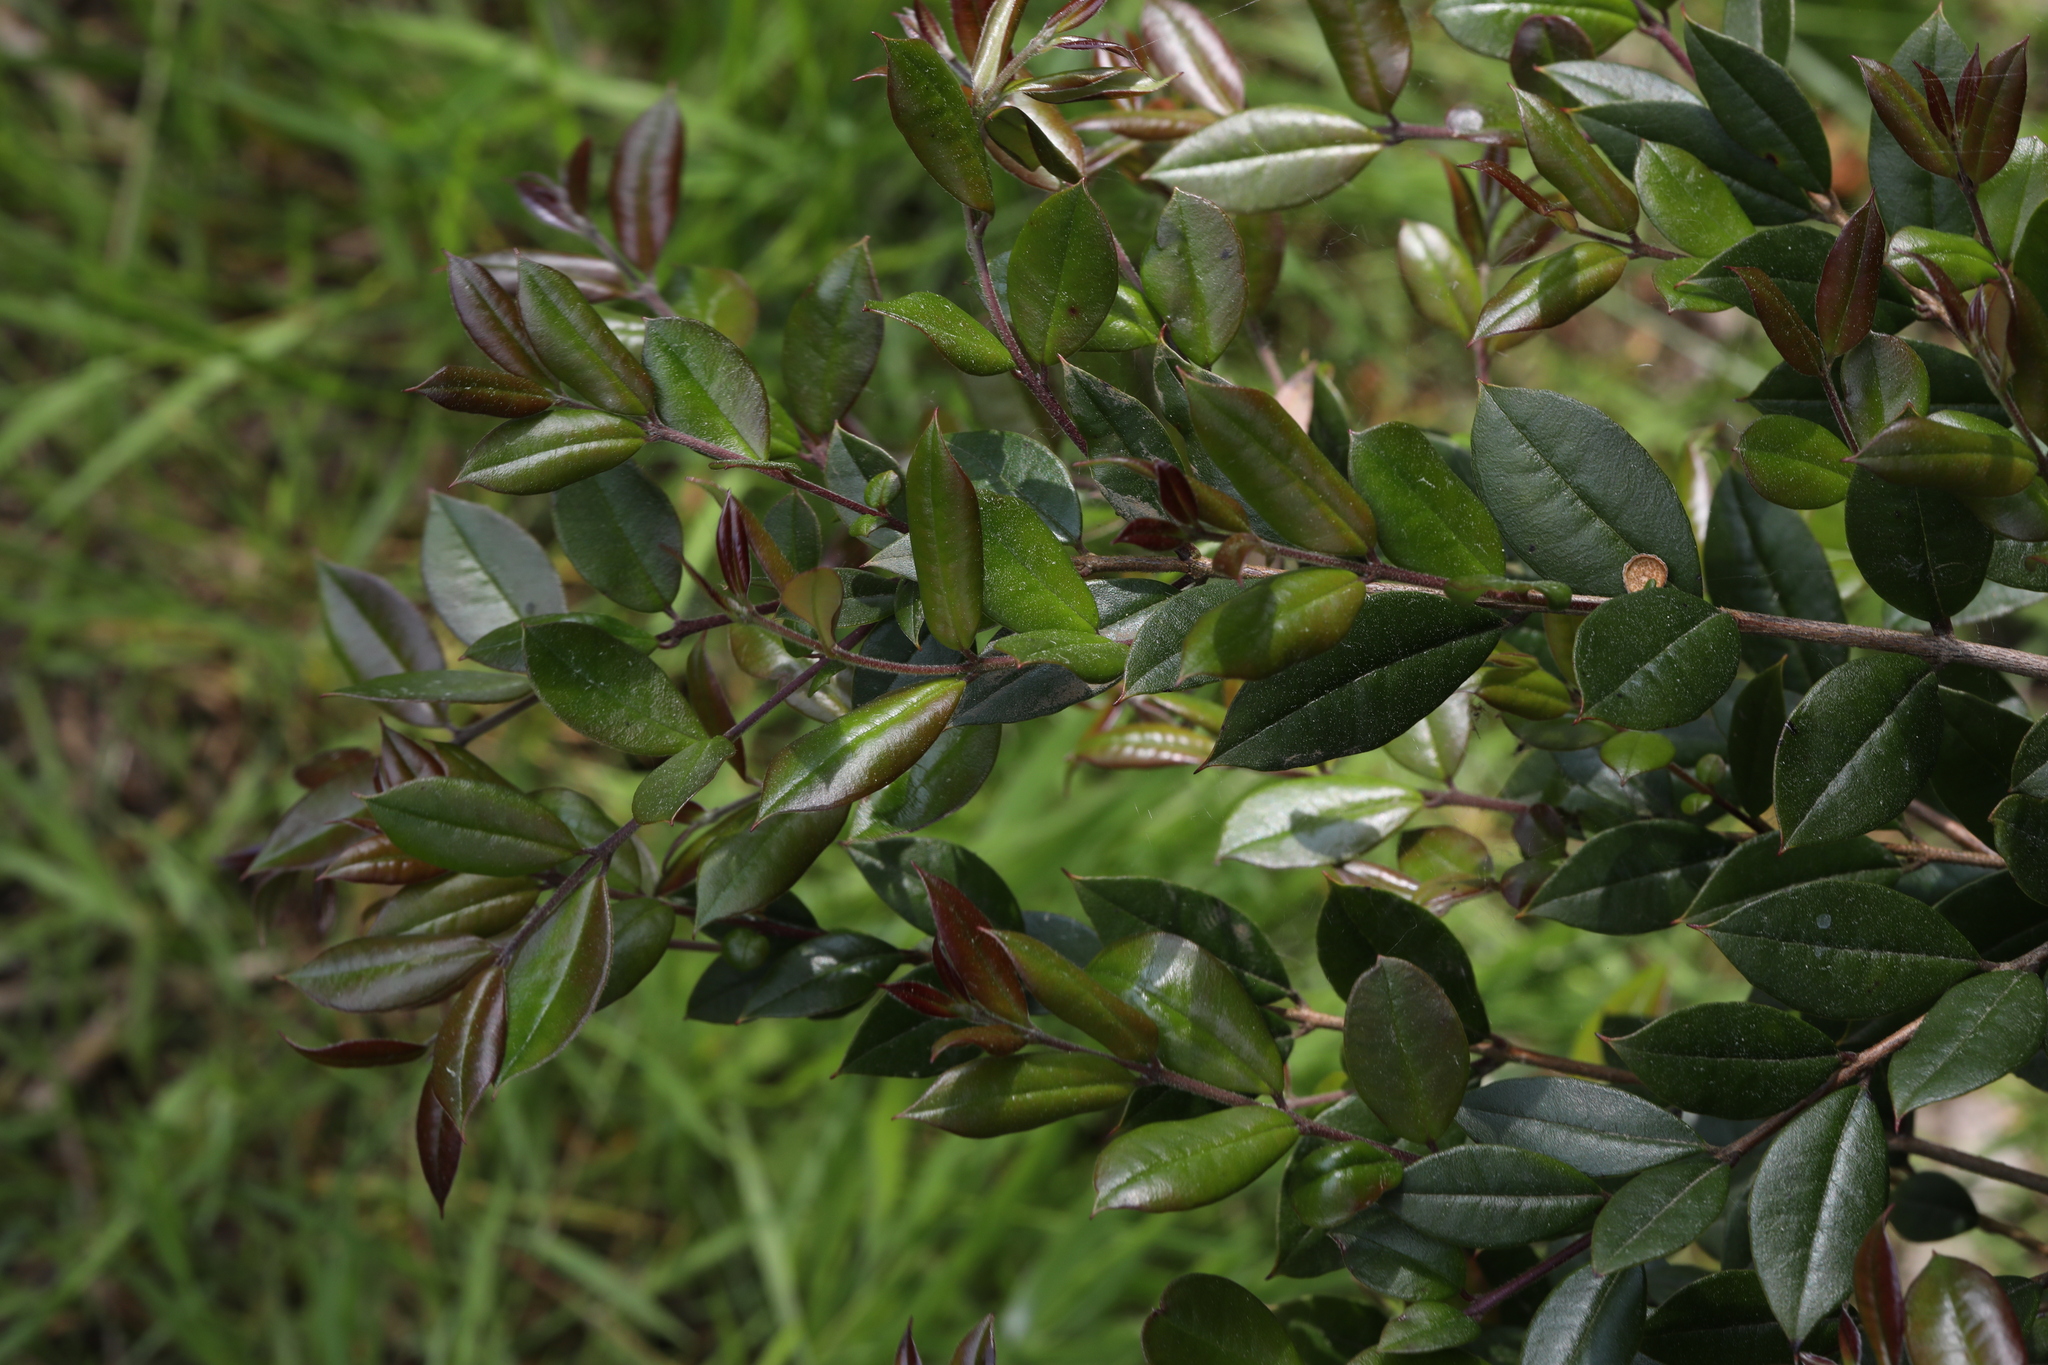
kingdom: Plantae
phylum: Tracheophyta
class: Magnoliopsida
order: Myrtales
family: Myrtaceae
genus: Myrtus
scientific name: Myrtus communis
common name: Myrtle
